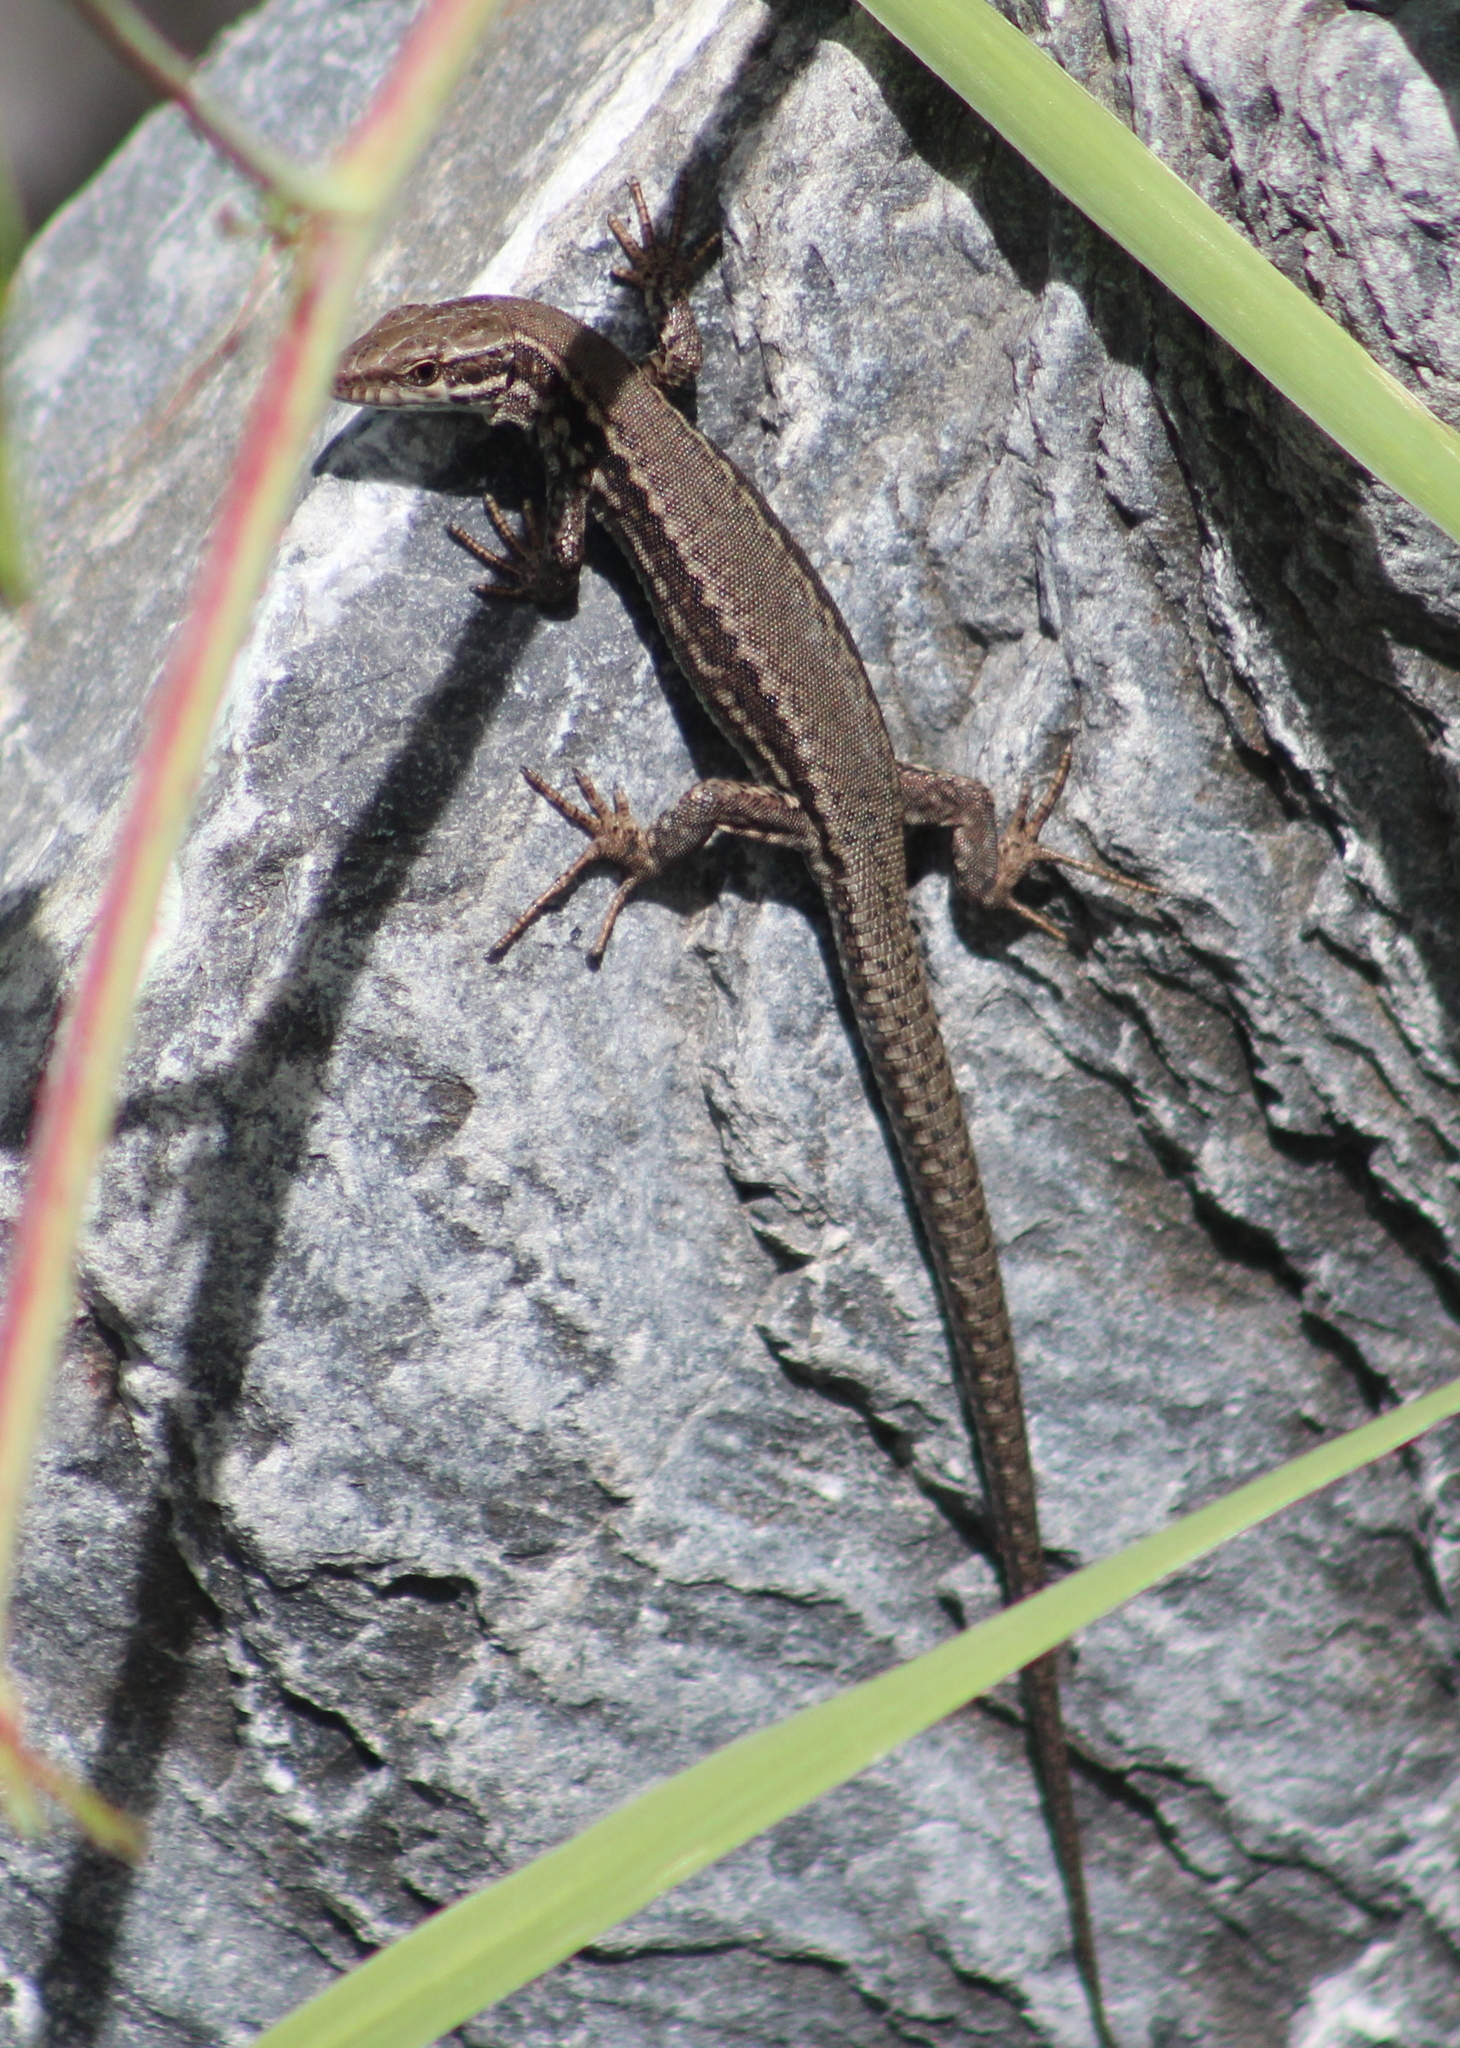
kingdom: Animalia
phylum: Chordata
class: Squamata
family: Lacertidae
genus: Podarcis
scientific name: Podarcis muralis
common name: Common wall lizard
